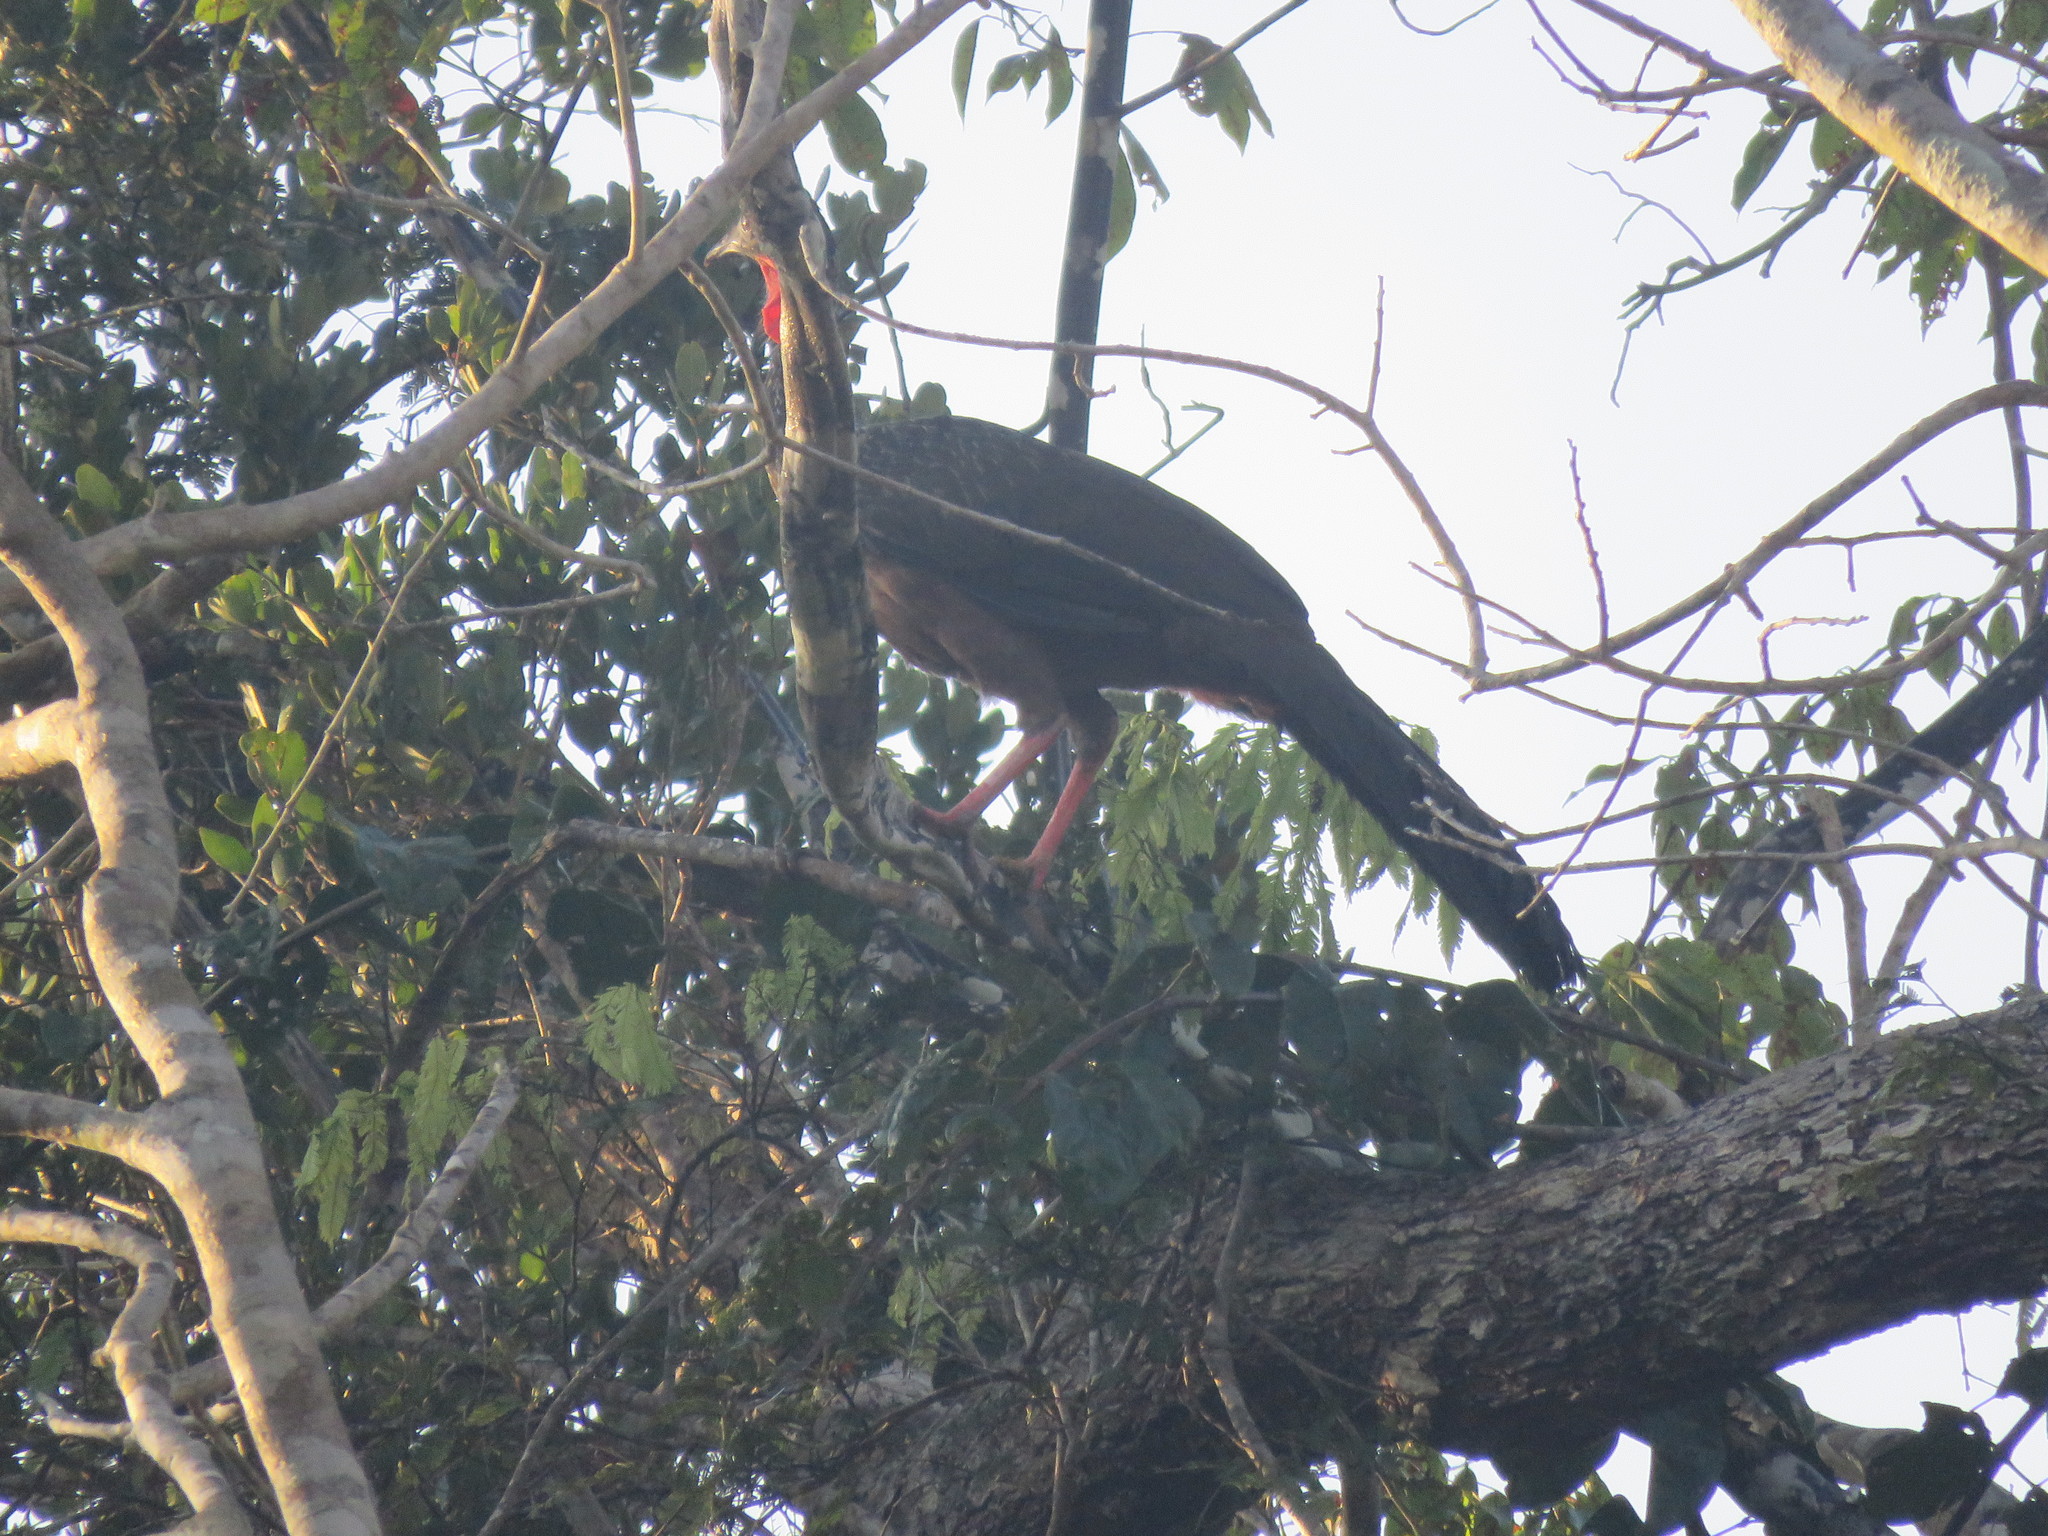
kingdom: Animalia
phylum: Chordata
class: Aves
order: Galliformes
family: Cracidae
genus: Penelope
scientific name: Penelope jacquacu
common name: Spix's guan
